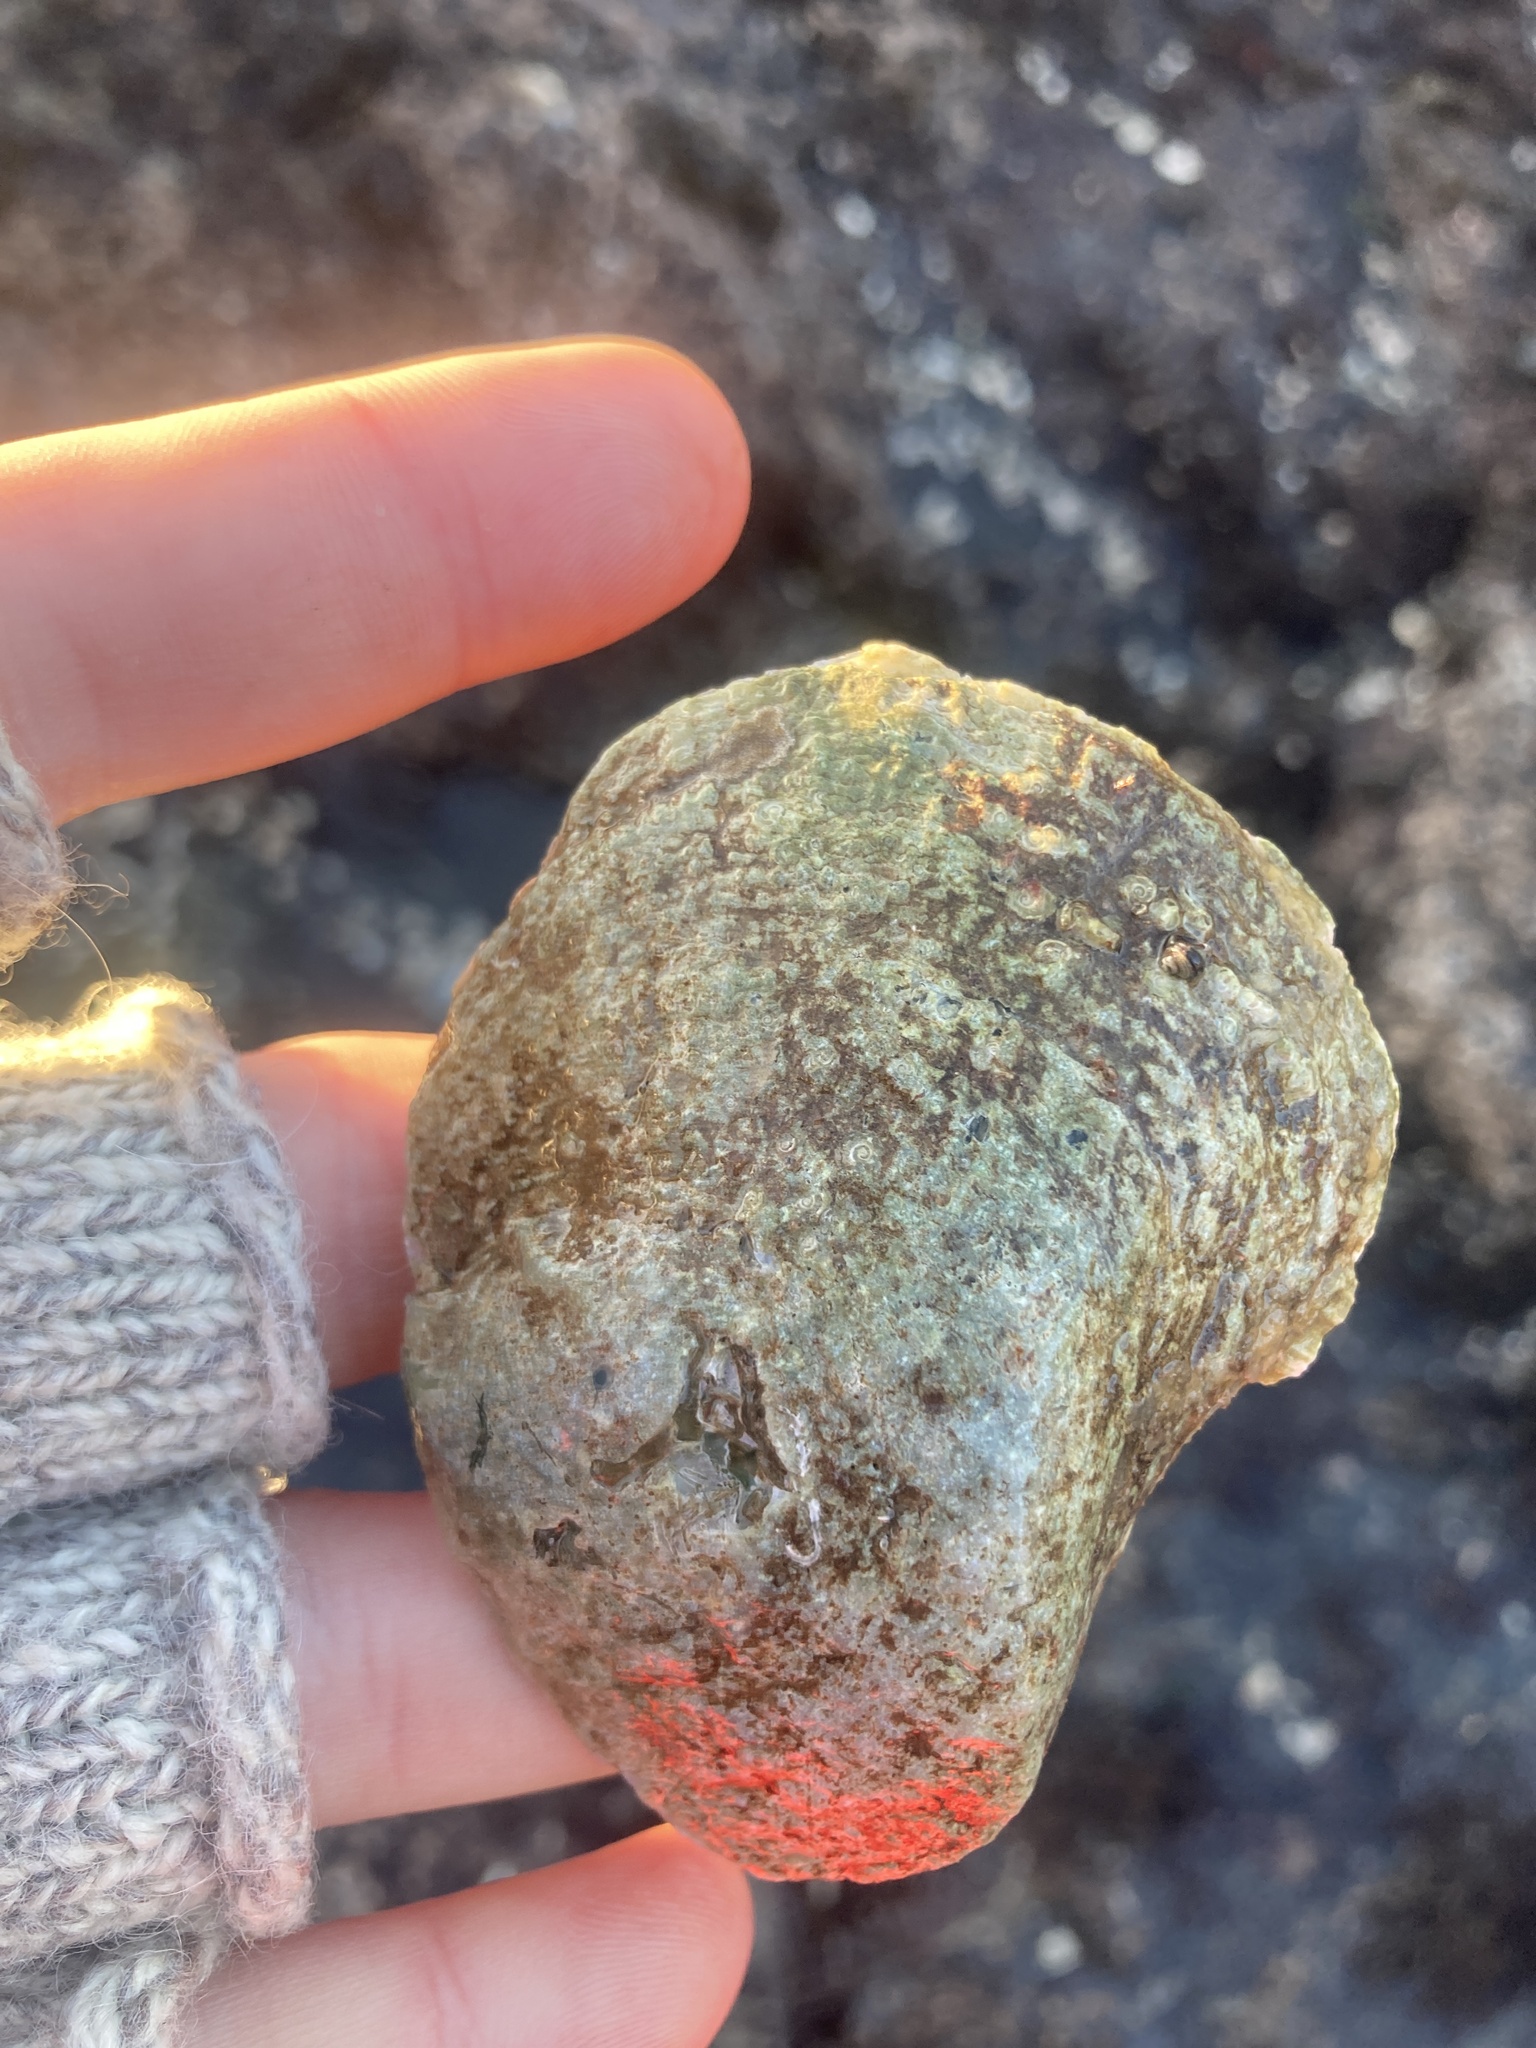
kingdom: Animalia
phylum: Mollusca
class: Bivalvia
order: Pectinida
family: Anomiidae
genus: Pododesmus
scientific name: Pododesmus macrochisma
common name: Alaska jingle
